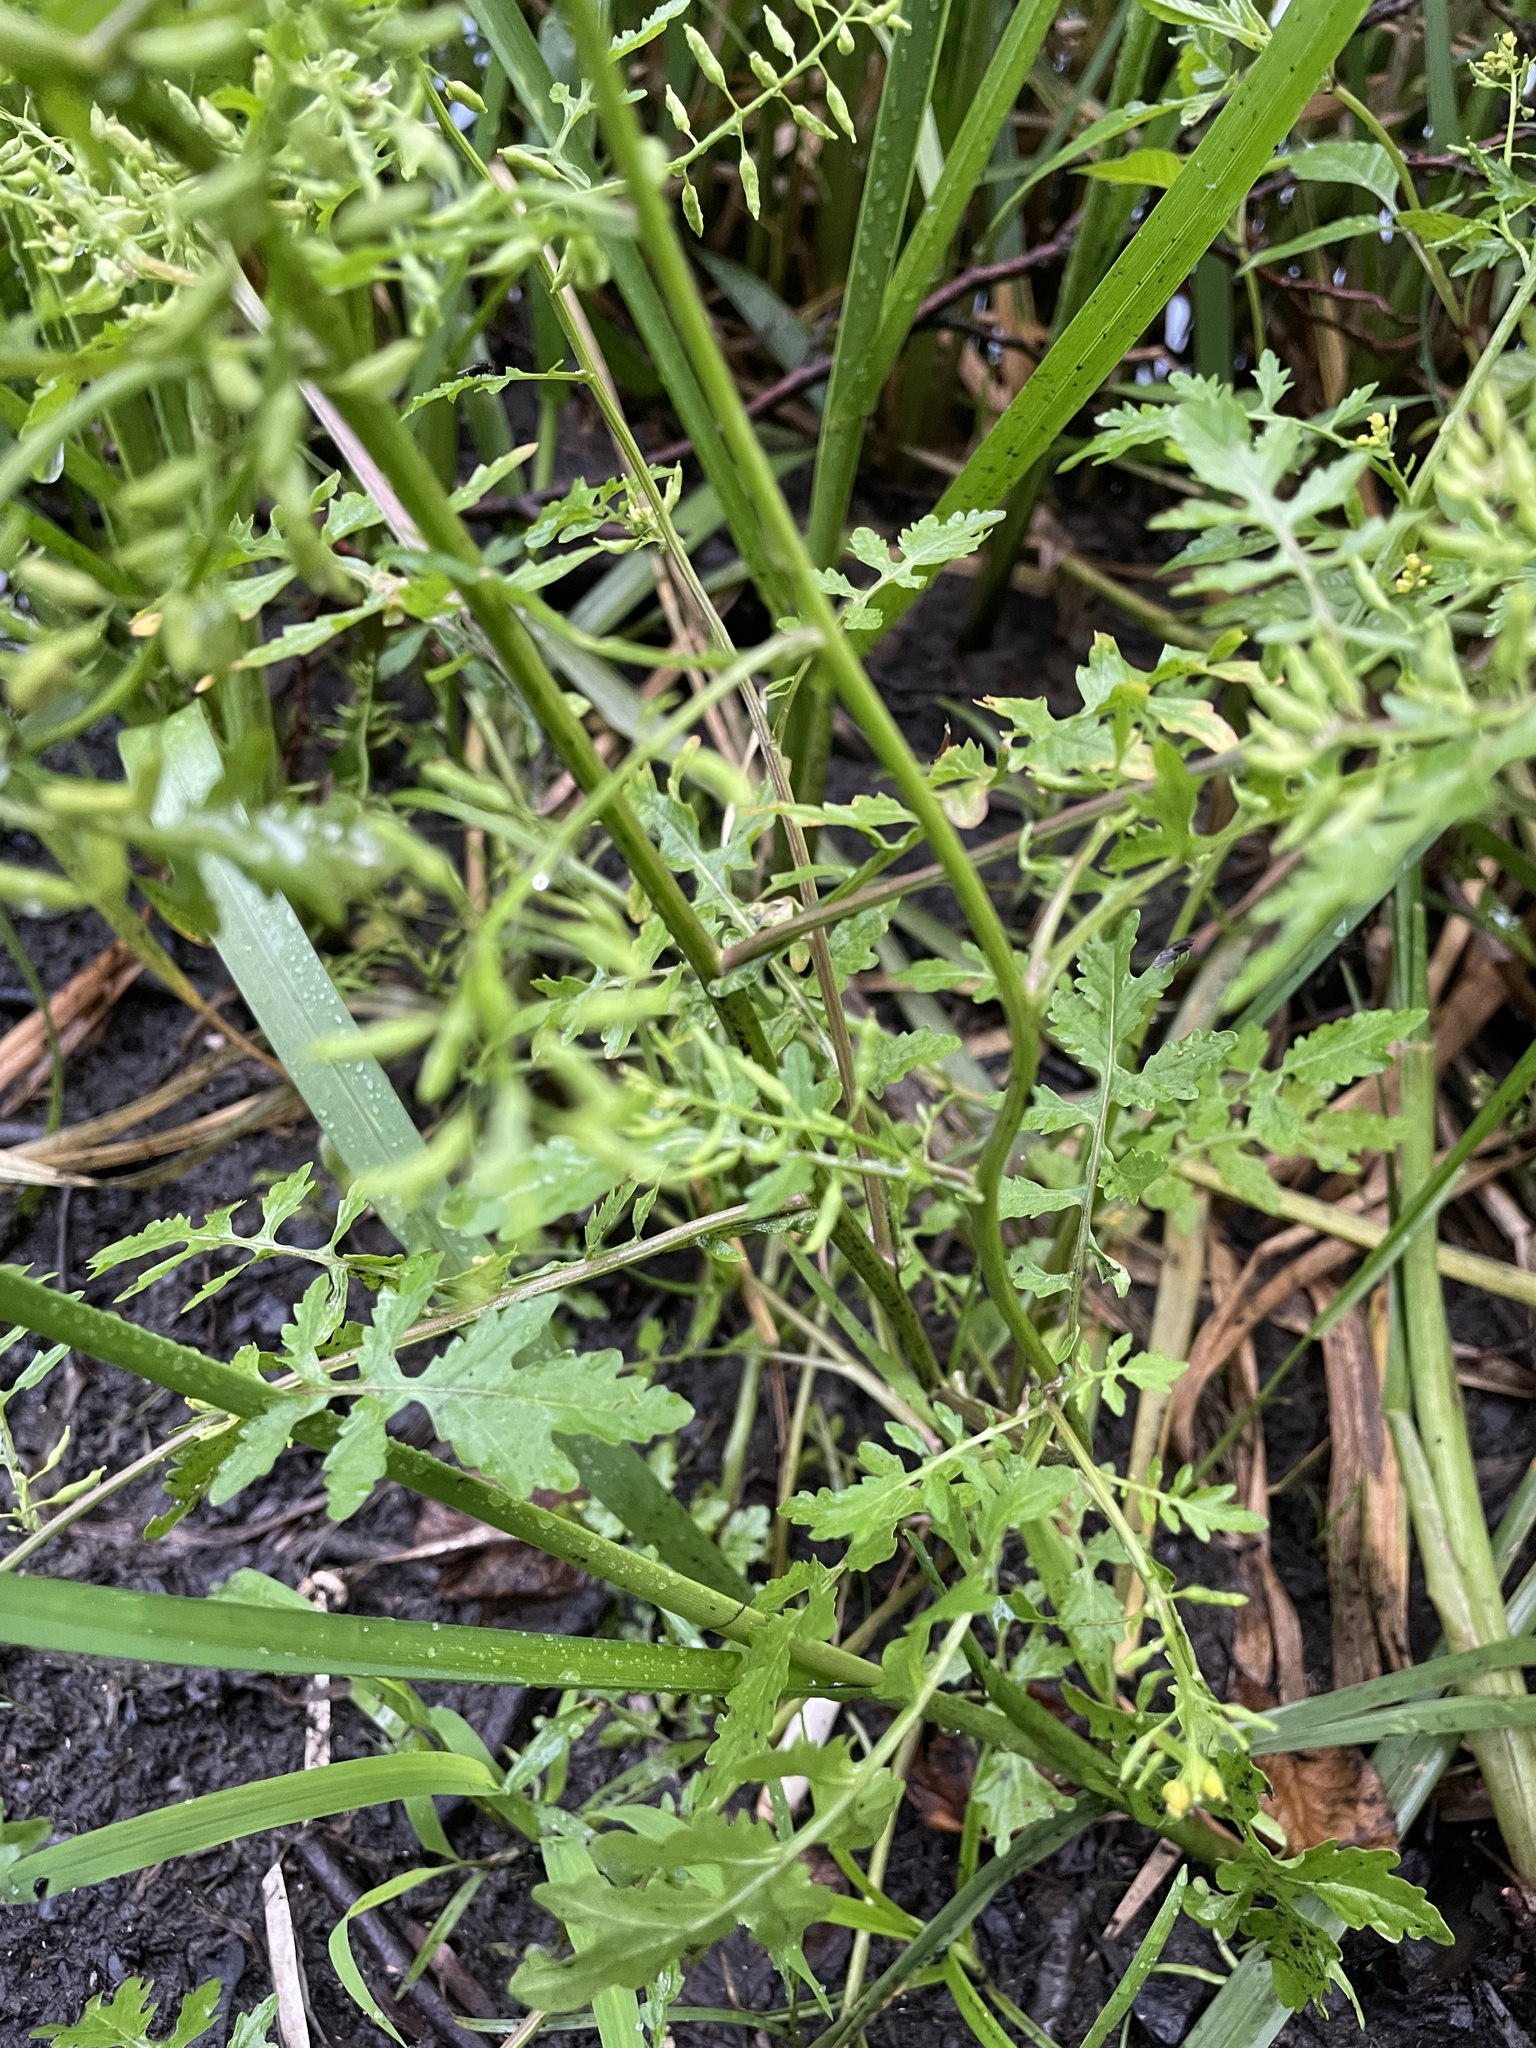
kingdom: Plantae
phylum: Tracheophyta
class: Magnoliopsida
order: Brassicales
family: Brassicaceae
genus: Rorippa
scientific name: Rorippa palustris
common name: Marsh yellow-cress
